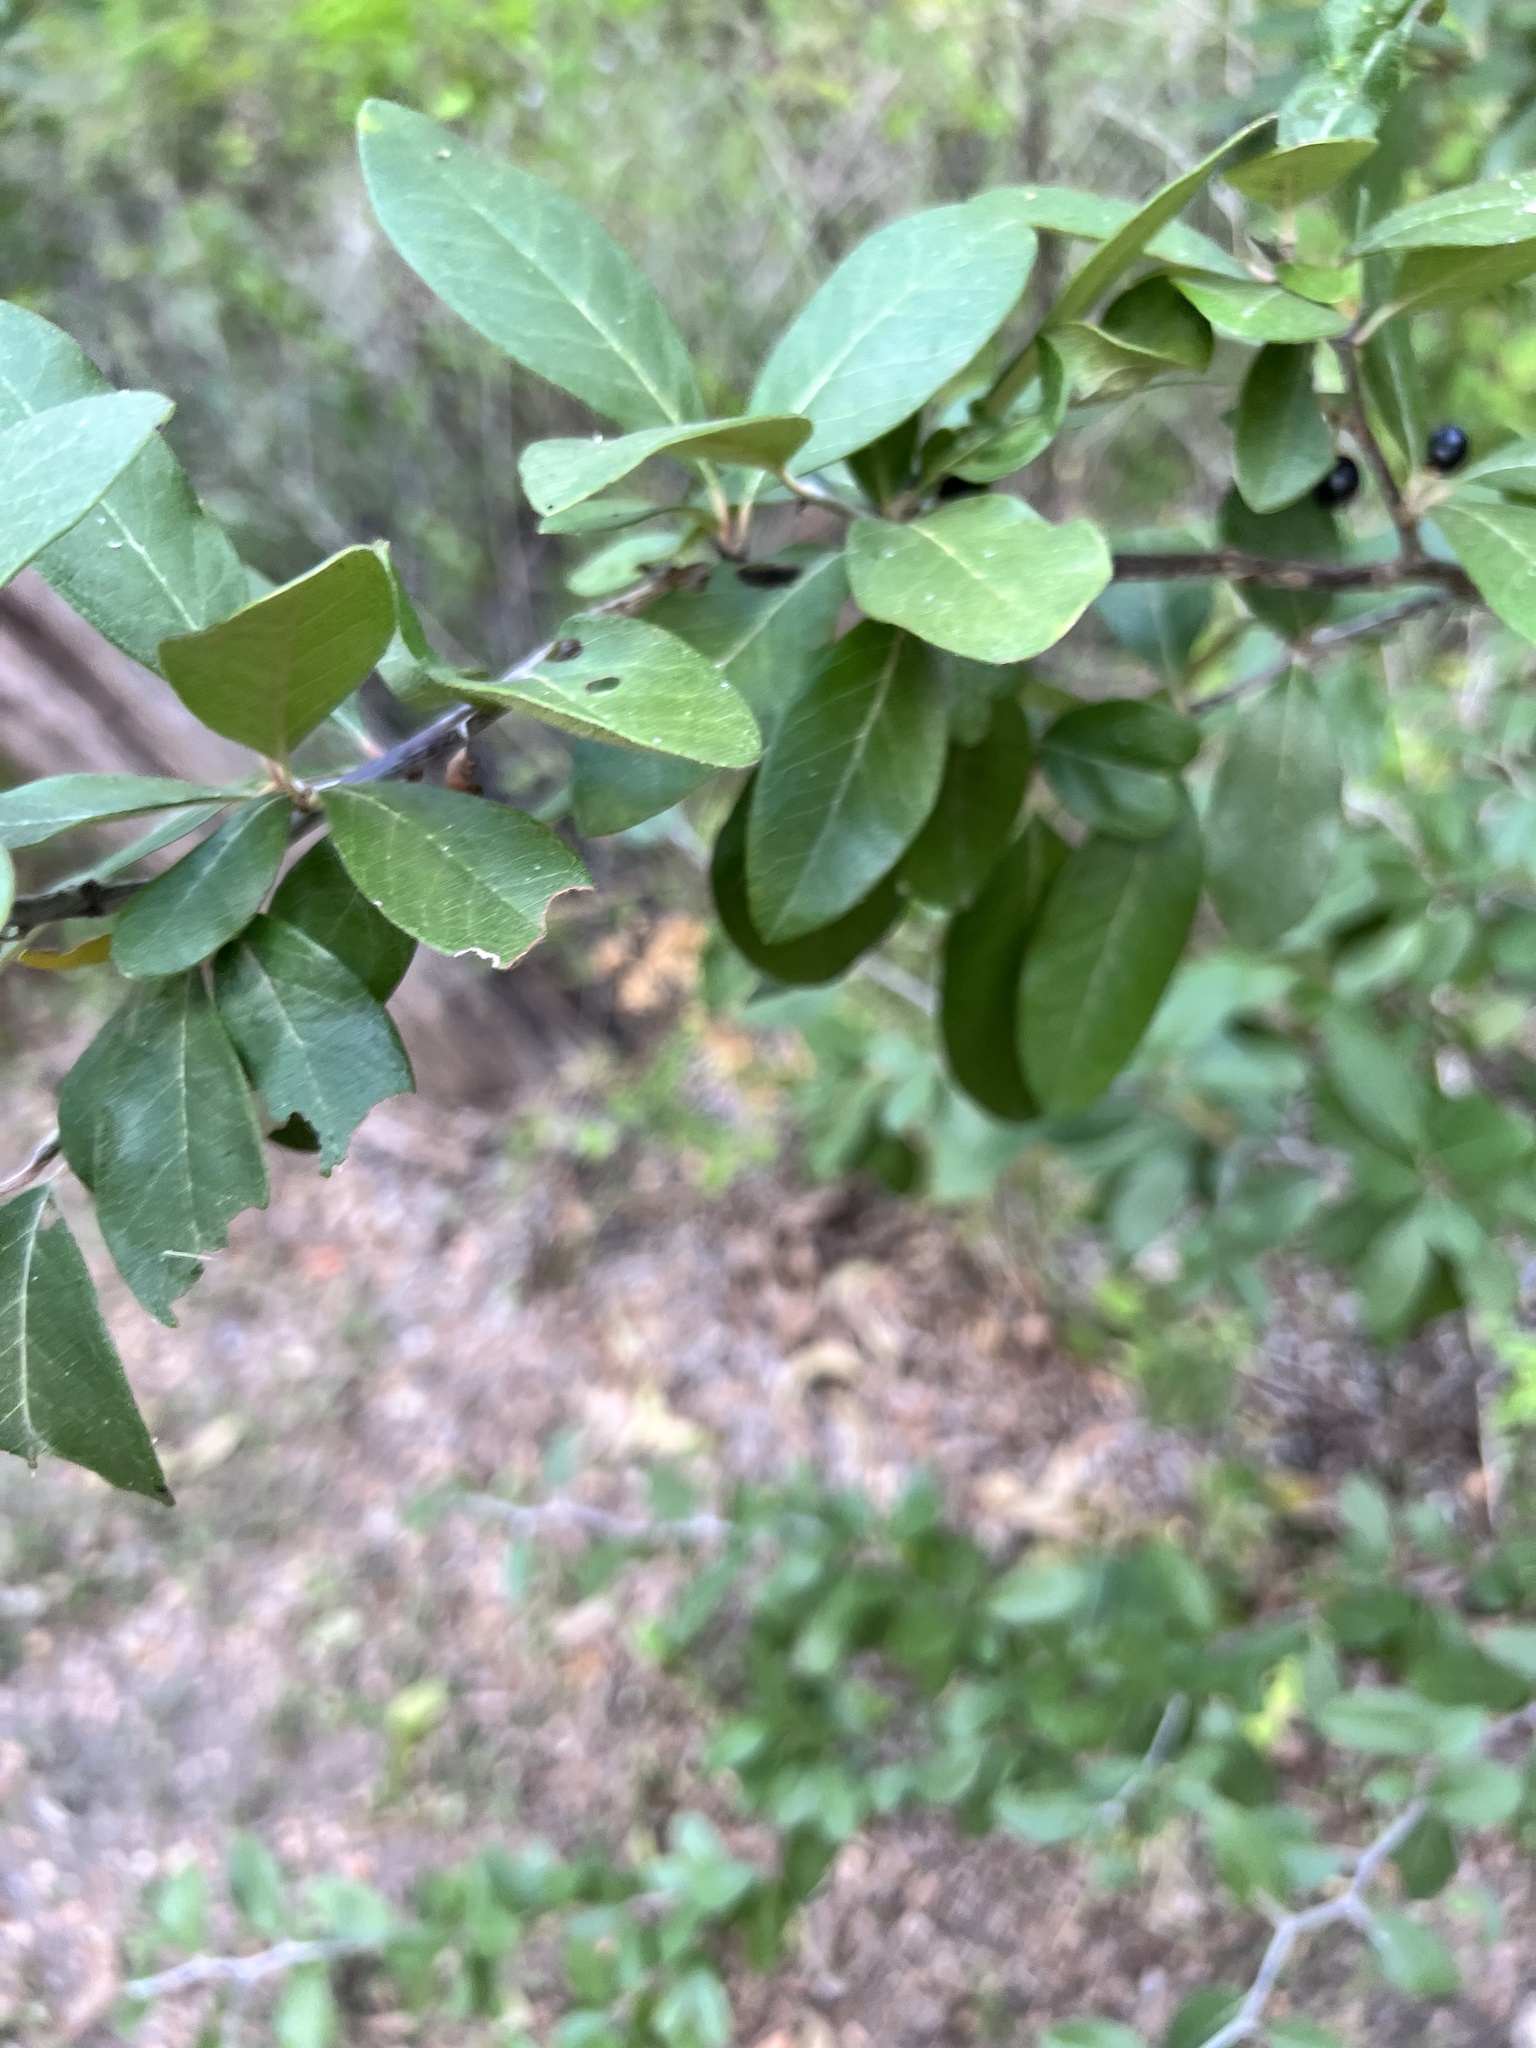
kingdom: Plantae
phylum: Tracheophyta
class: Magnoliopsida
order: Ericales
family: Sapotaceae
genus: Sideroxylon
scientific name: Sideroxylon lanuginosum
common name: Chittamwood
